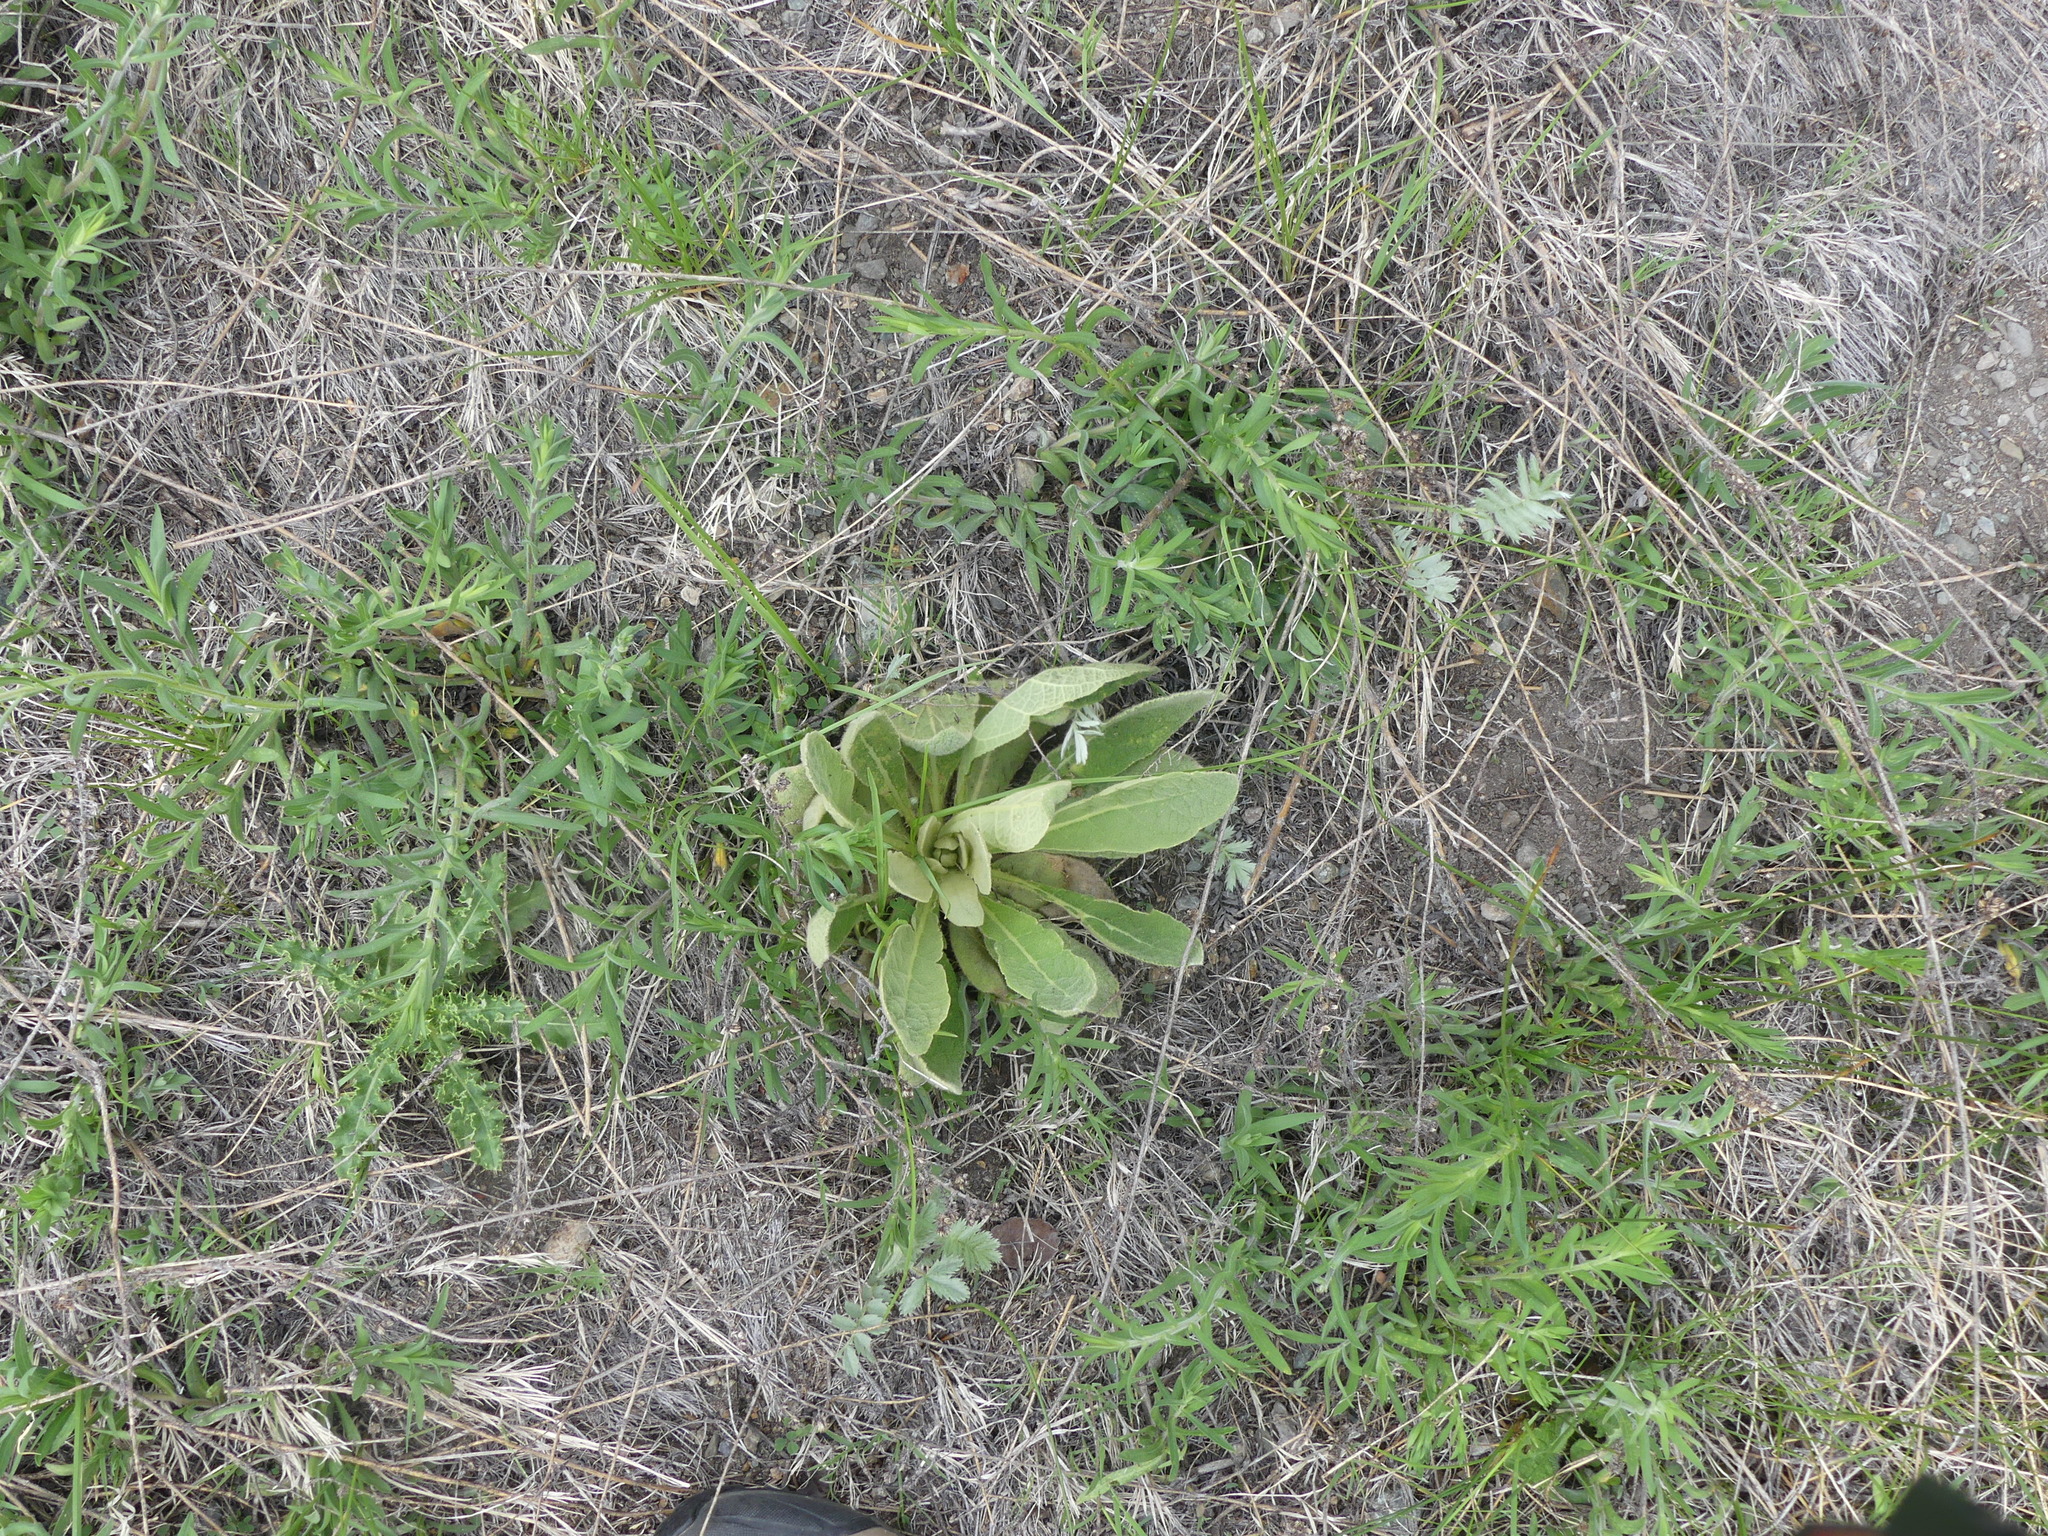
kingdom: Plantae
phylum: Tracheophyta
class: Magnoliopsida
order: Lamiales
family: Scrophulariaceae
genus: Verbascum
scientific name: Verbascum thapsus
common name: Common mullein
